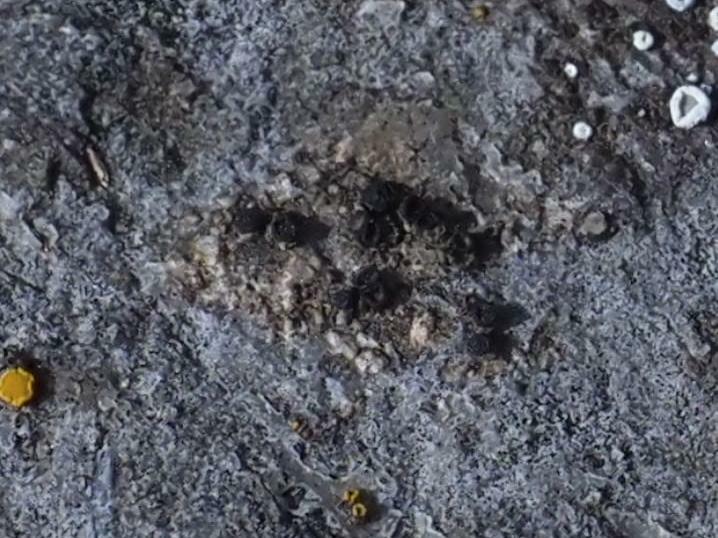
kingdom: Fungi
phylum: Ascomycota
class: Lecanoromycetes
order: Lecanorales
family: Lecanoraceae
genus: Lecidella
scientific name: Lecidella stigmatea
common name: Limestone disc lichen
